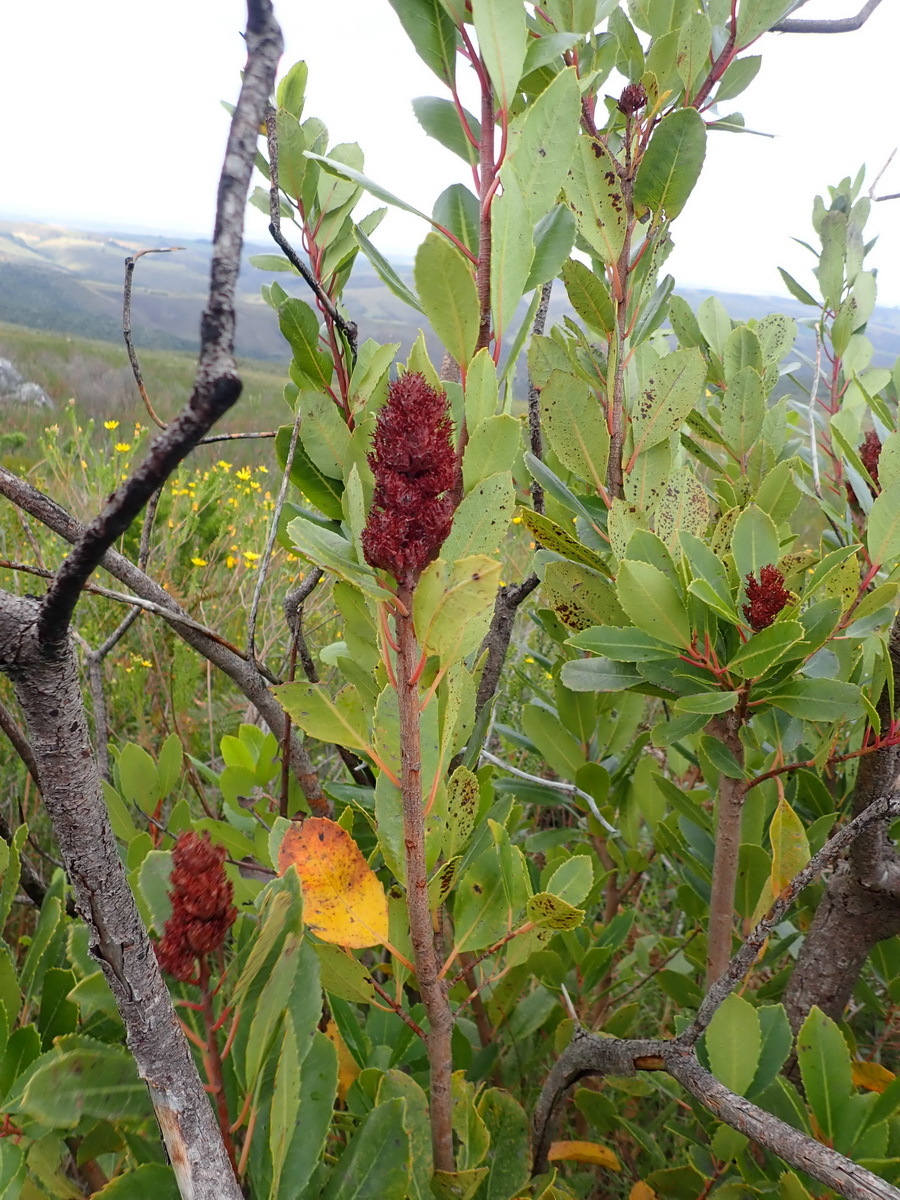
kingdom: Plantae
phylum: Tracheophyta
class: Magnoliopsida
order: Sapindales
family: Anacardiaceae
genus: Laurophyllus
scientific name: Laurophyllus capensis
